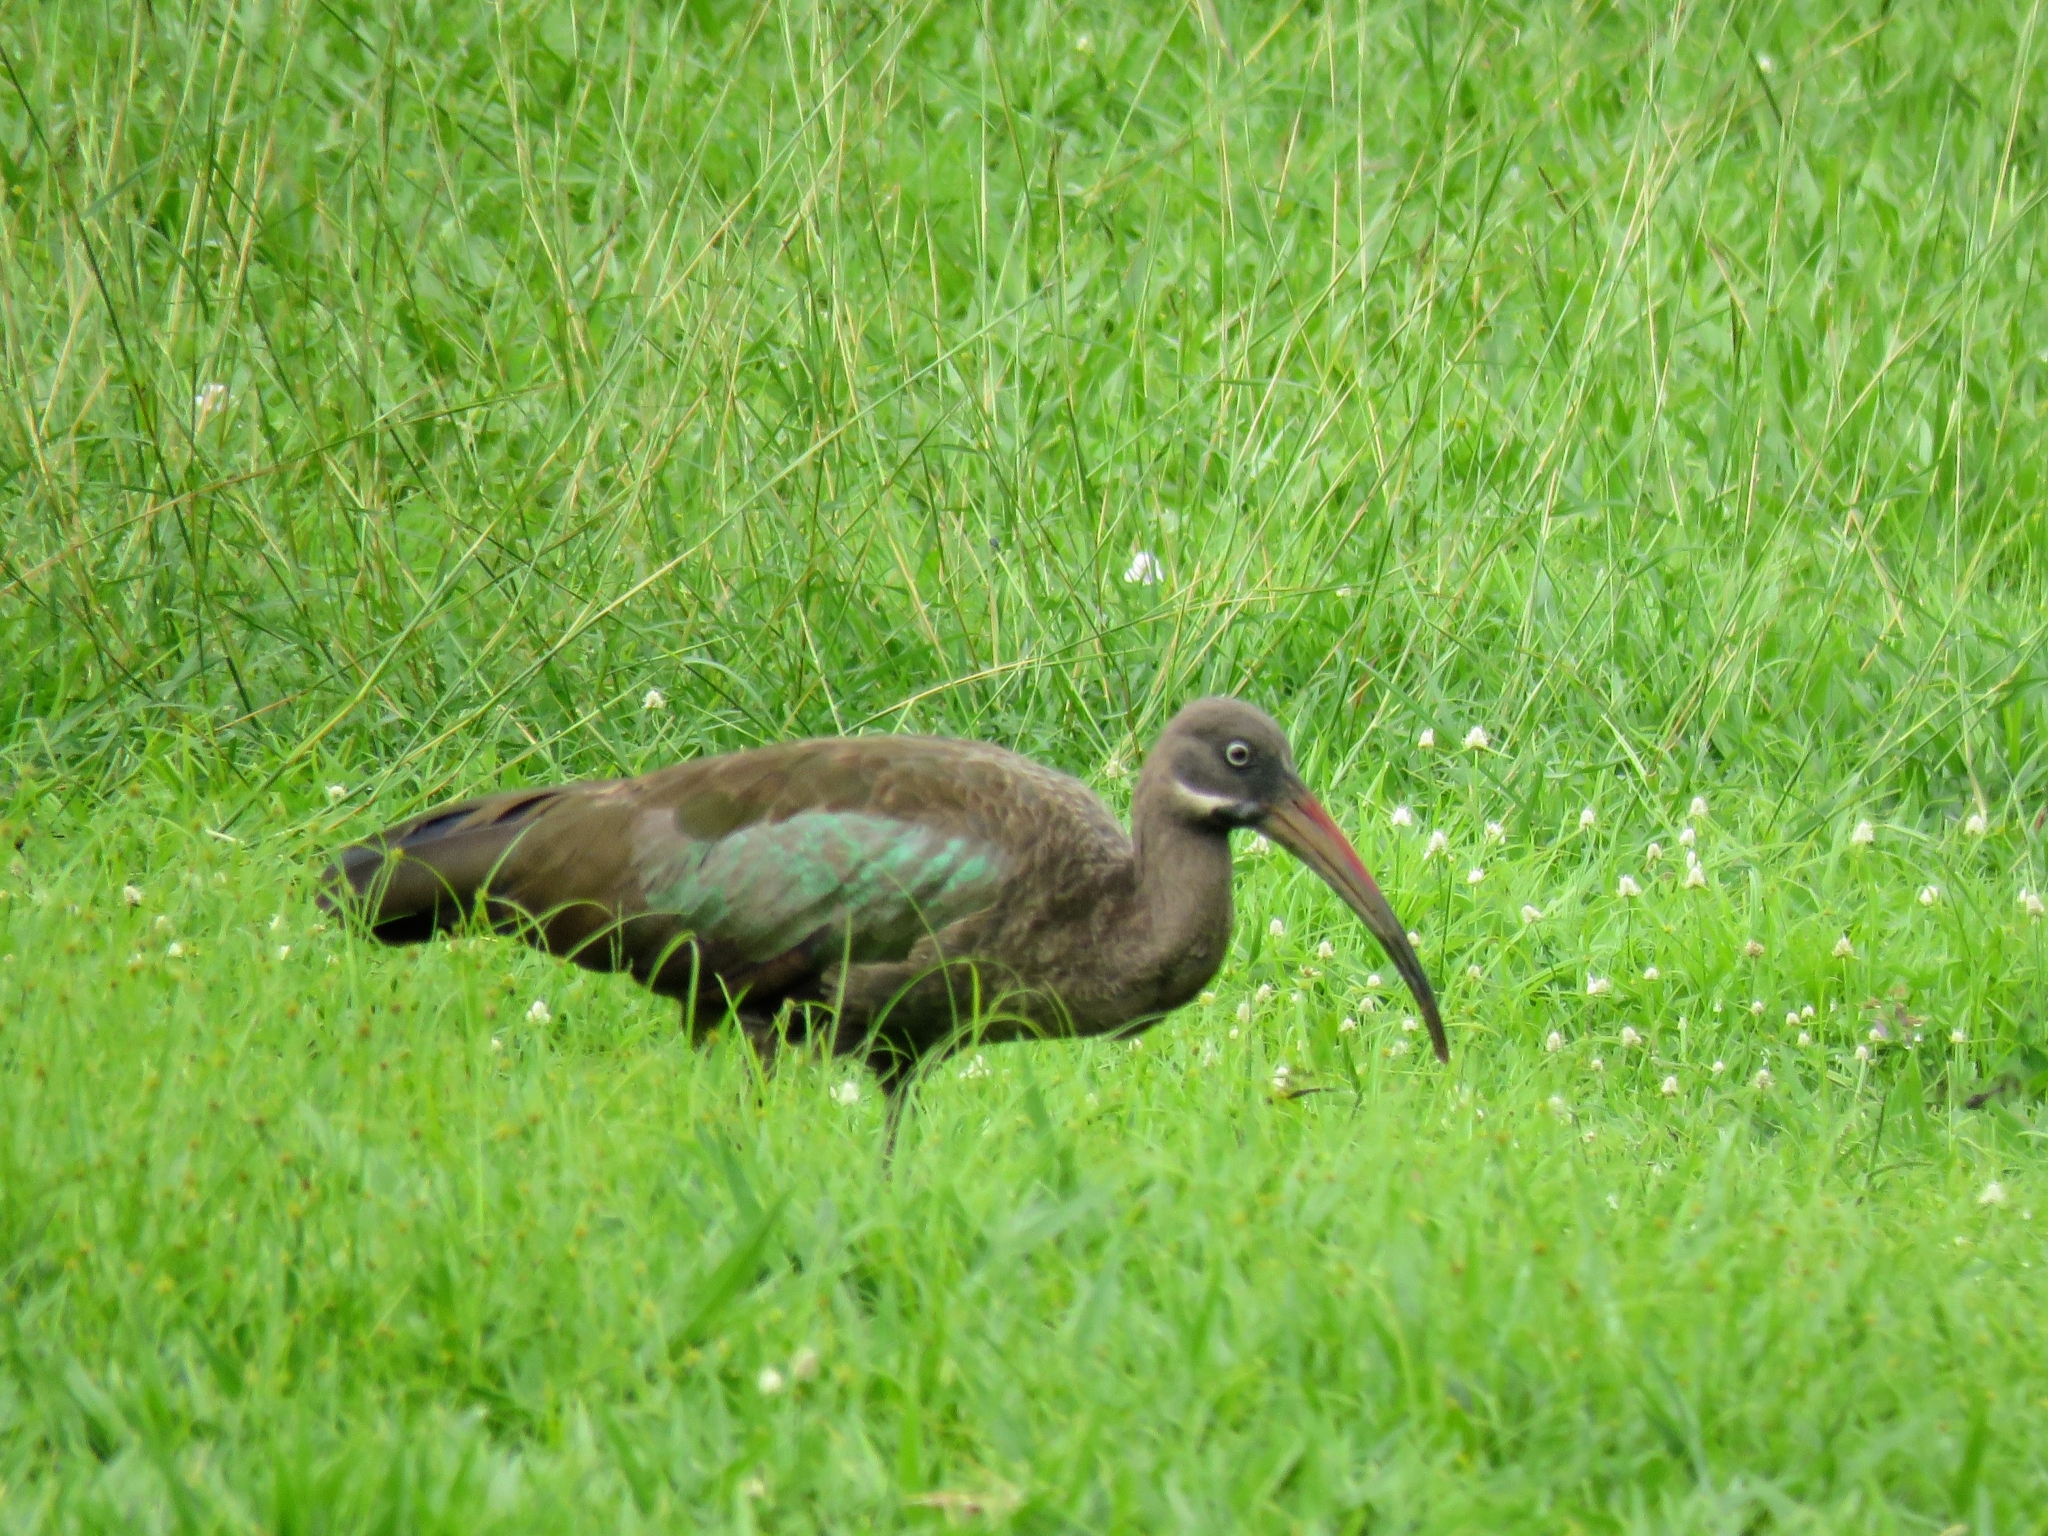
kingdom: Animalia
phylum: Chordata
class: Aves
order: Pelecaniformes
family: Threskiornithidae
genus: Bostrychia
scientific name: Bostrychia hagedash
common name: Hadada ibis
